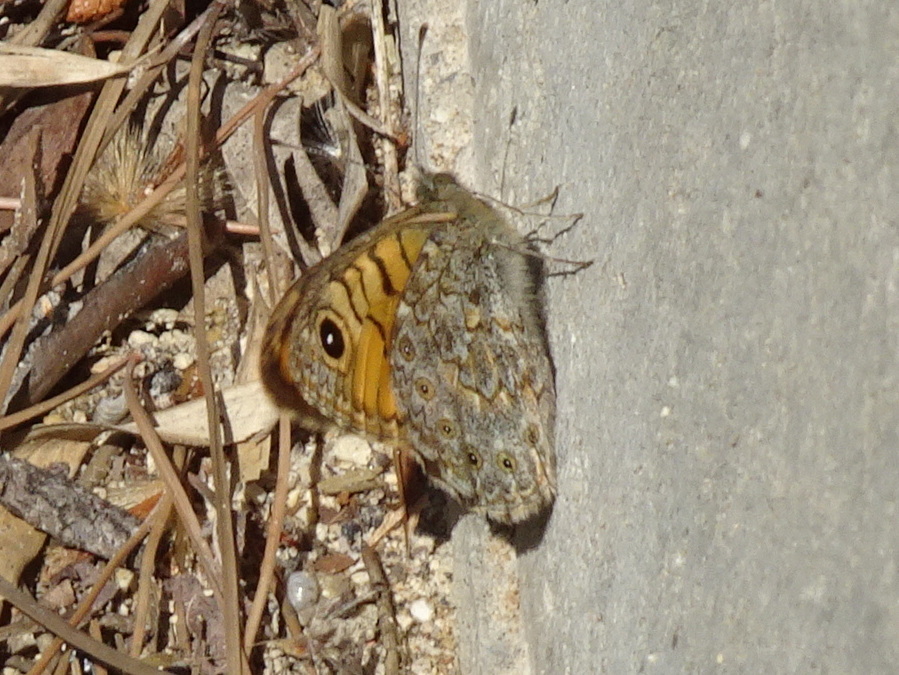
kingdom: Animalia
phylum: Arthropoda
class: Insecta
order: Lepidoptera
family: Nymphalidae
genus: Pararge
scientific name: Pararge Lasiommata megera
